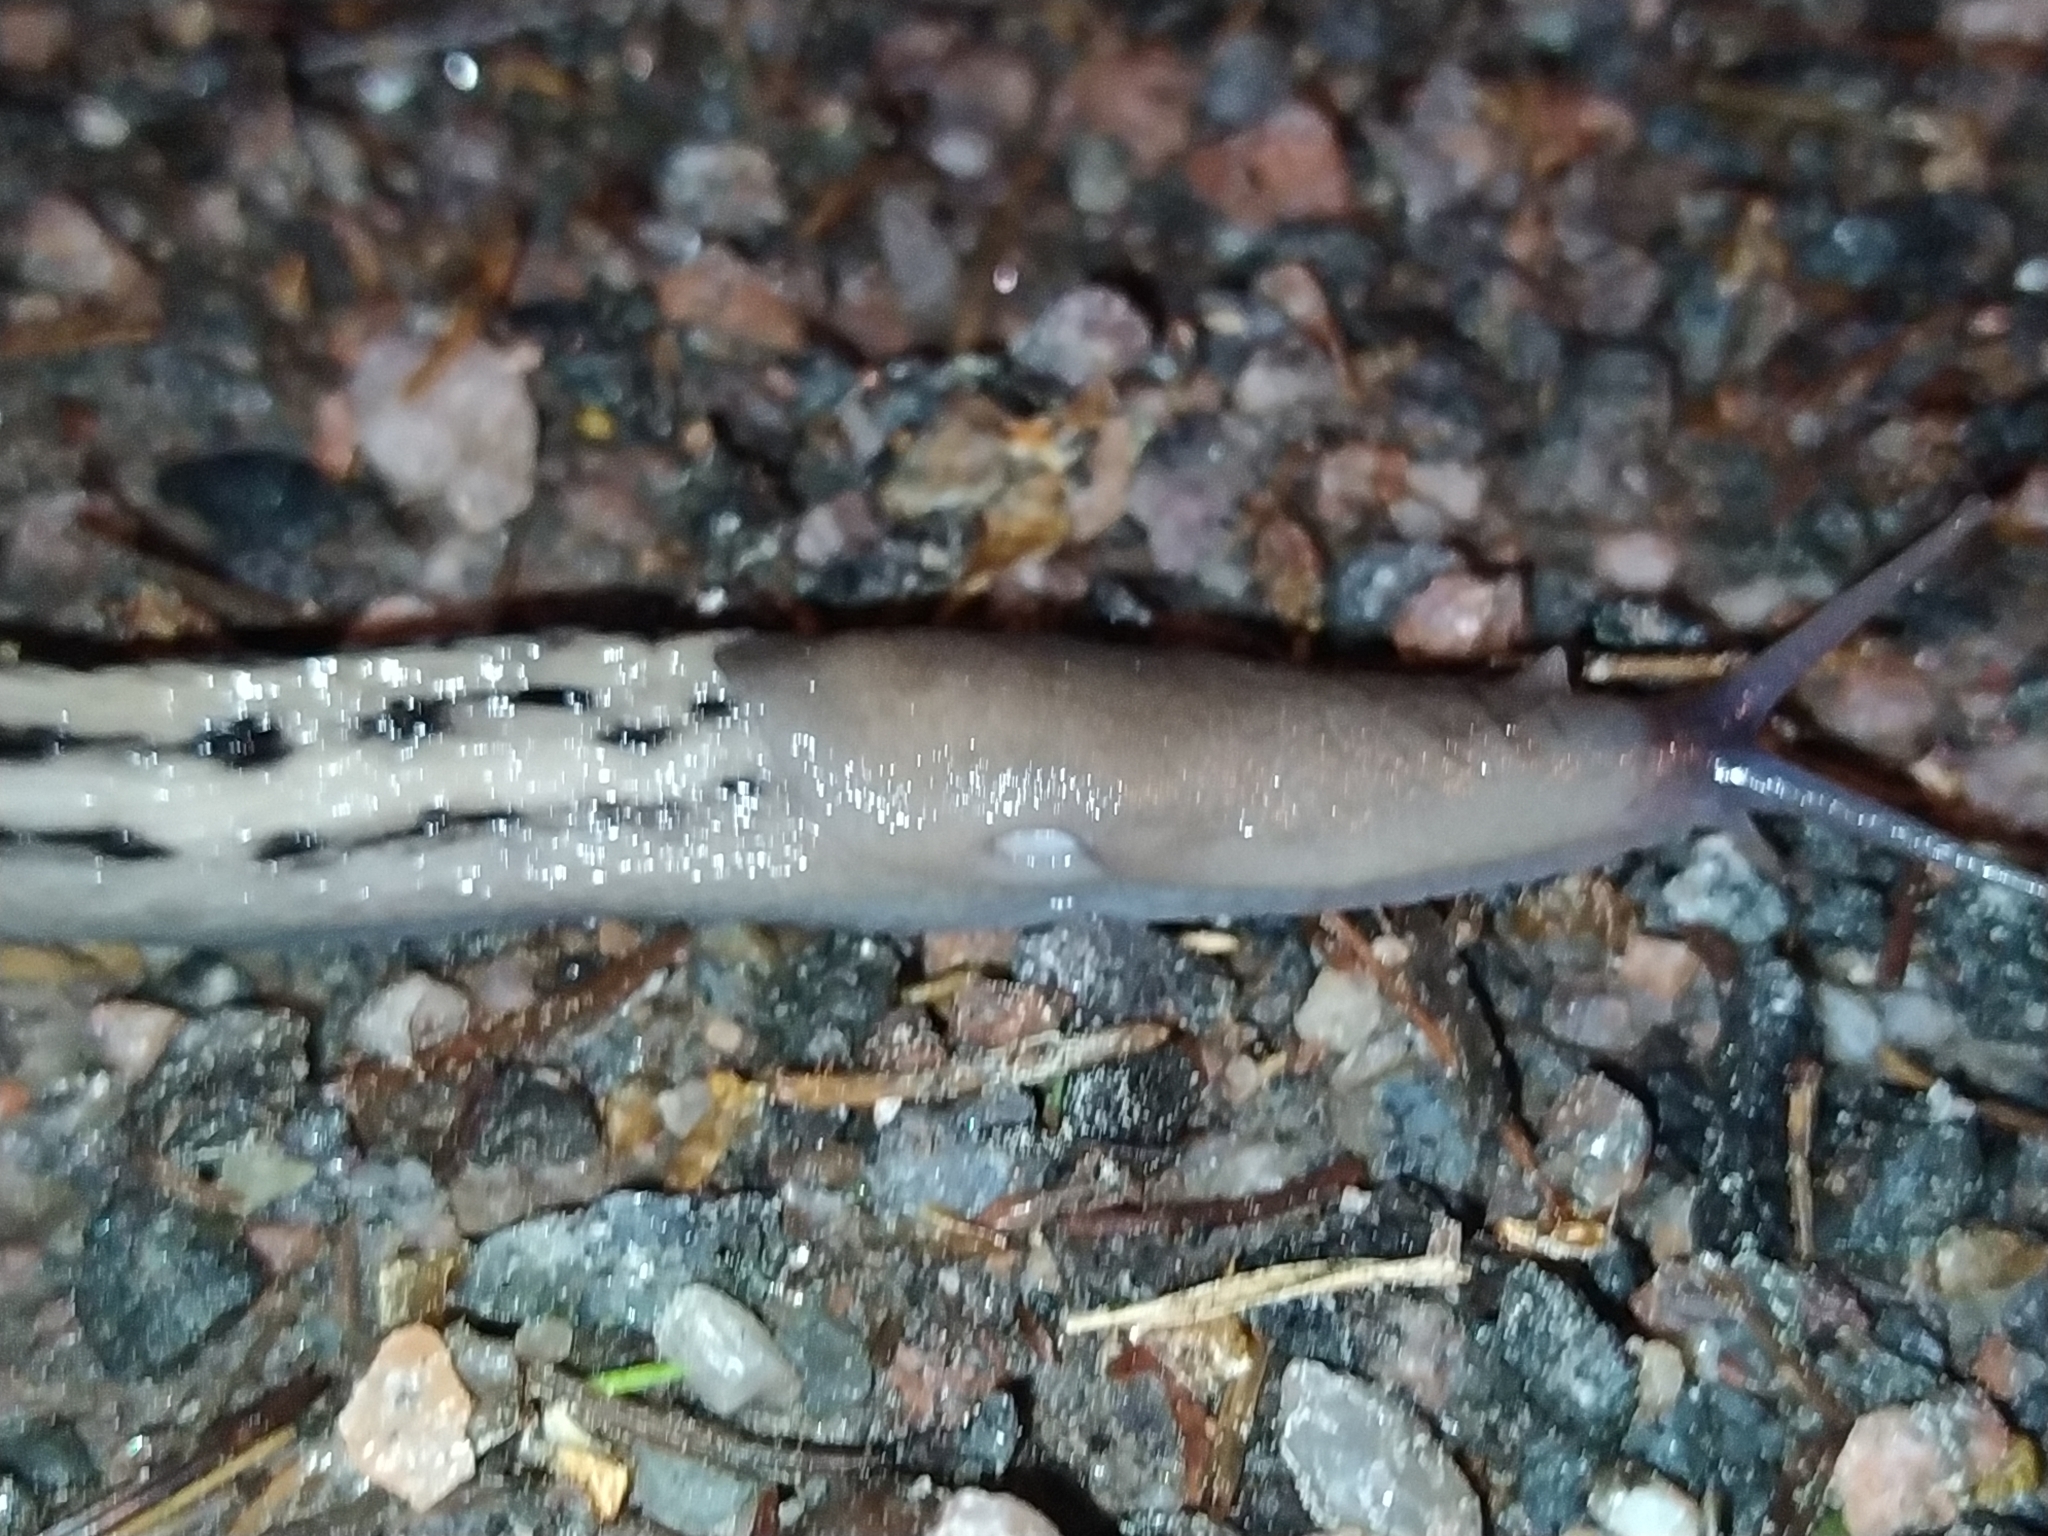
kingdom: Animalia
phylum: Mollusca
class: Gastropoda
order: Stylommatophora
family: Limacidae
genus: Limax
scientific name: Limax cinereoniger
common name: Ash-black slug
